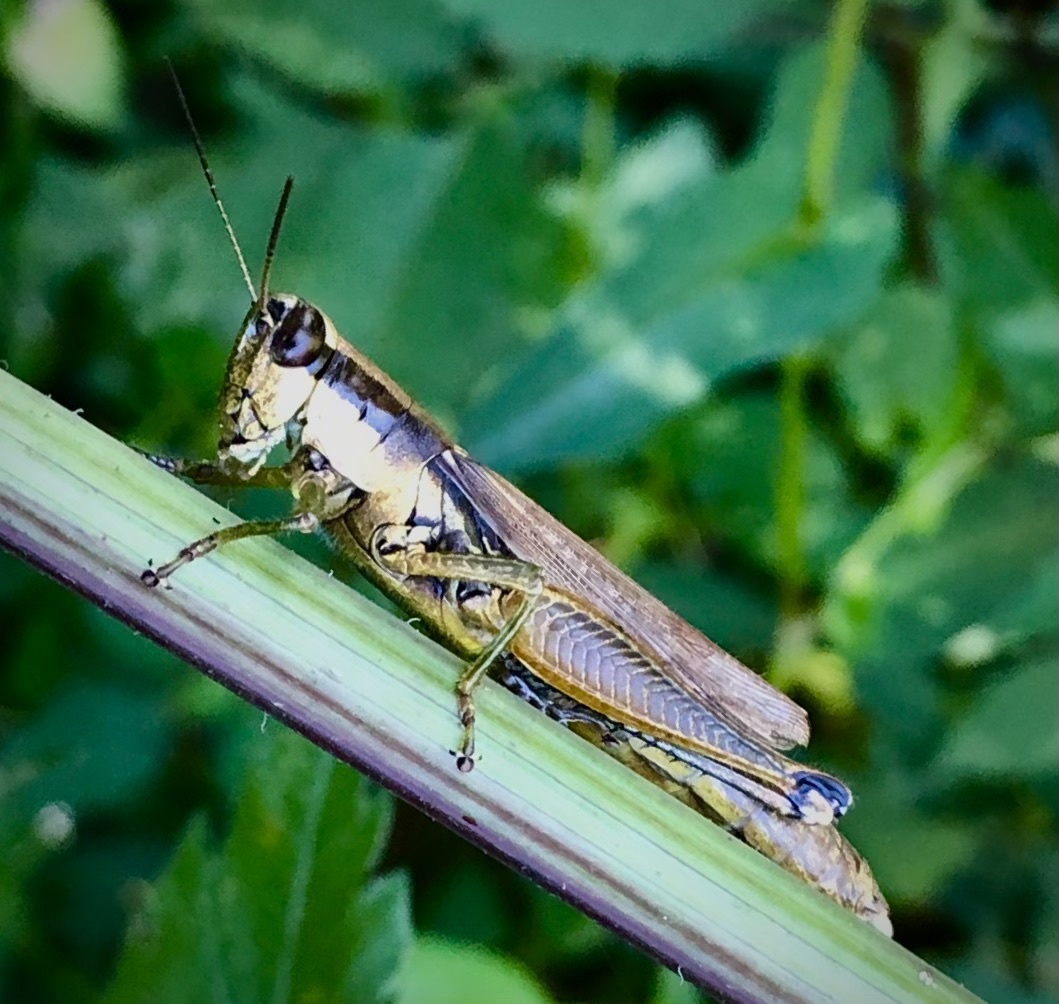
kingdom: Animalia
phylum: Arthropoda
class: Insecta
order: Orthoptera
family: Acrididae
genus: Paroxya
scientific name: Paroxya clavuligera
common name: Olive-green swamp grasshopper
